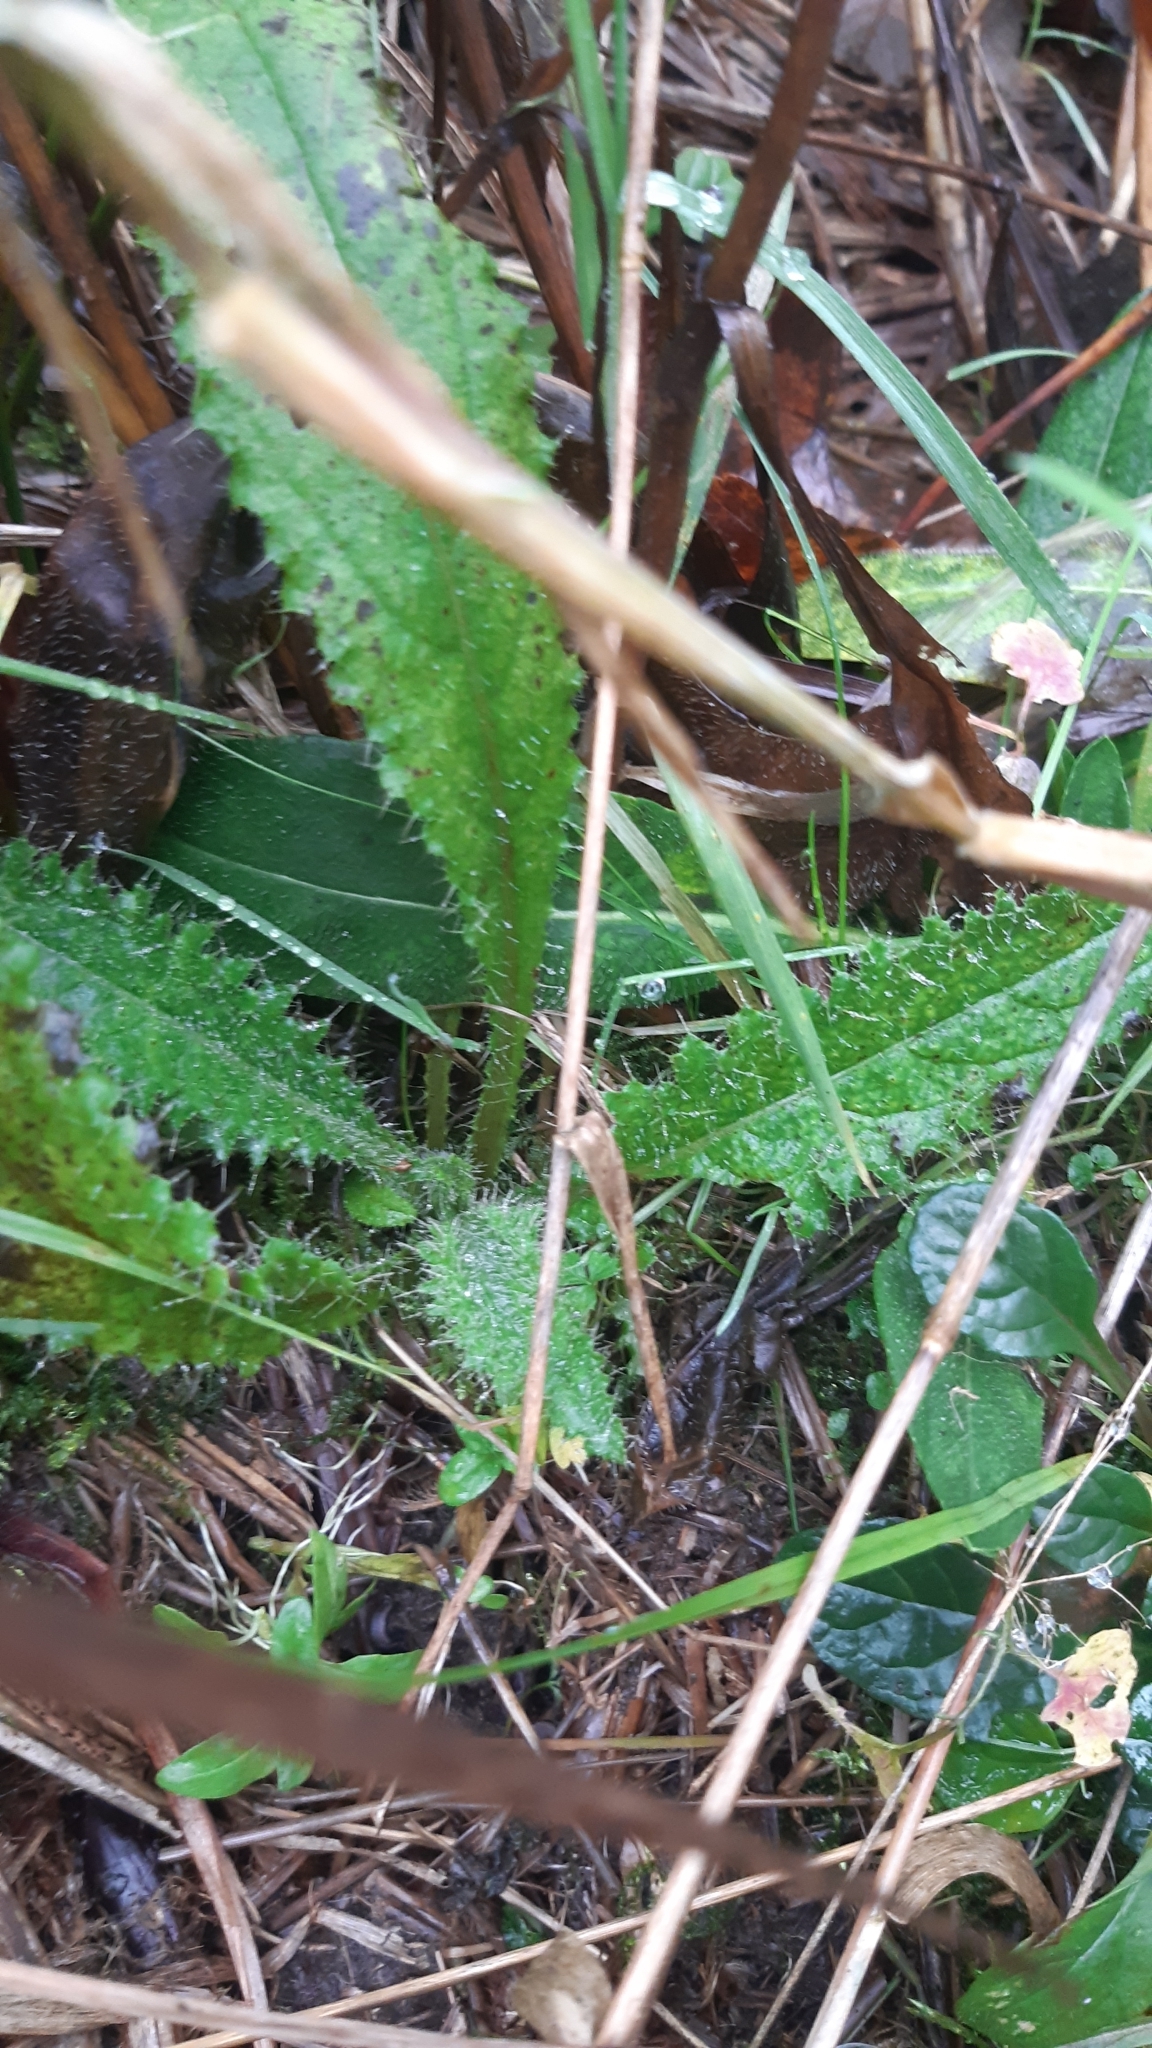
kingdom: Plantae
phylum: Tracheophyta
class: Magnoliopsida
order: Asterales
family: Asteraceae
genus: Cirsium
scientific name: Cirsium palustre
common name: Marsh thistle
